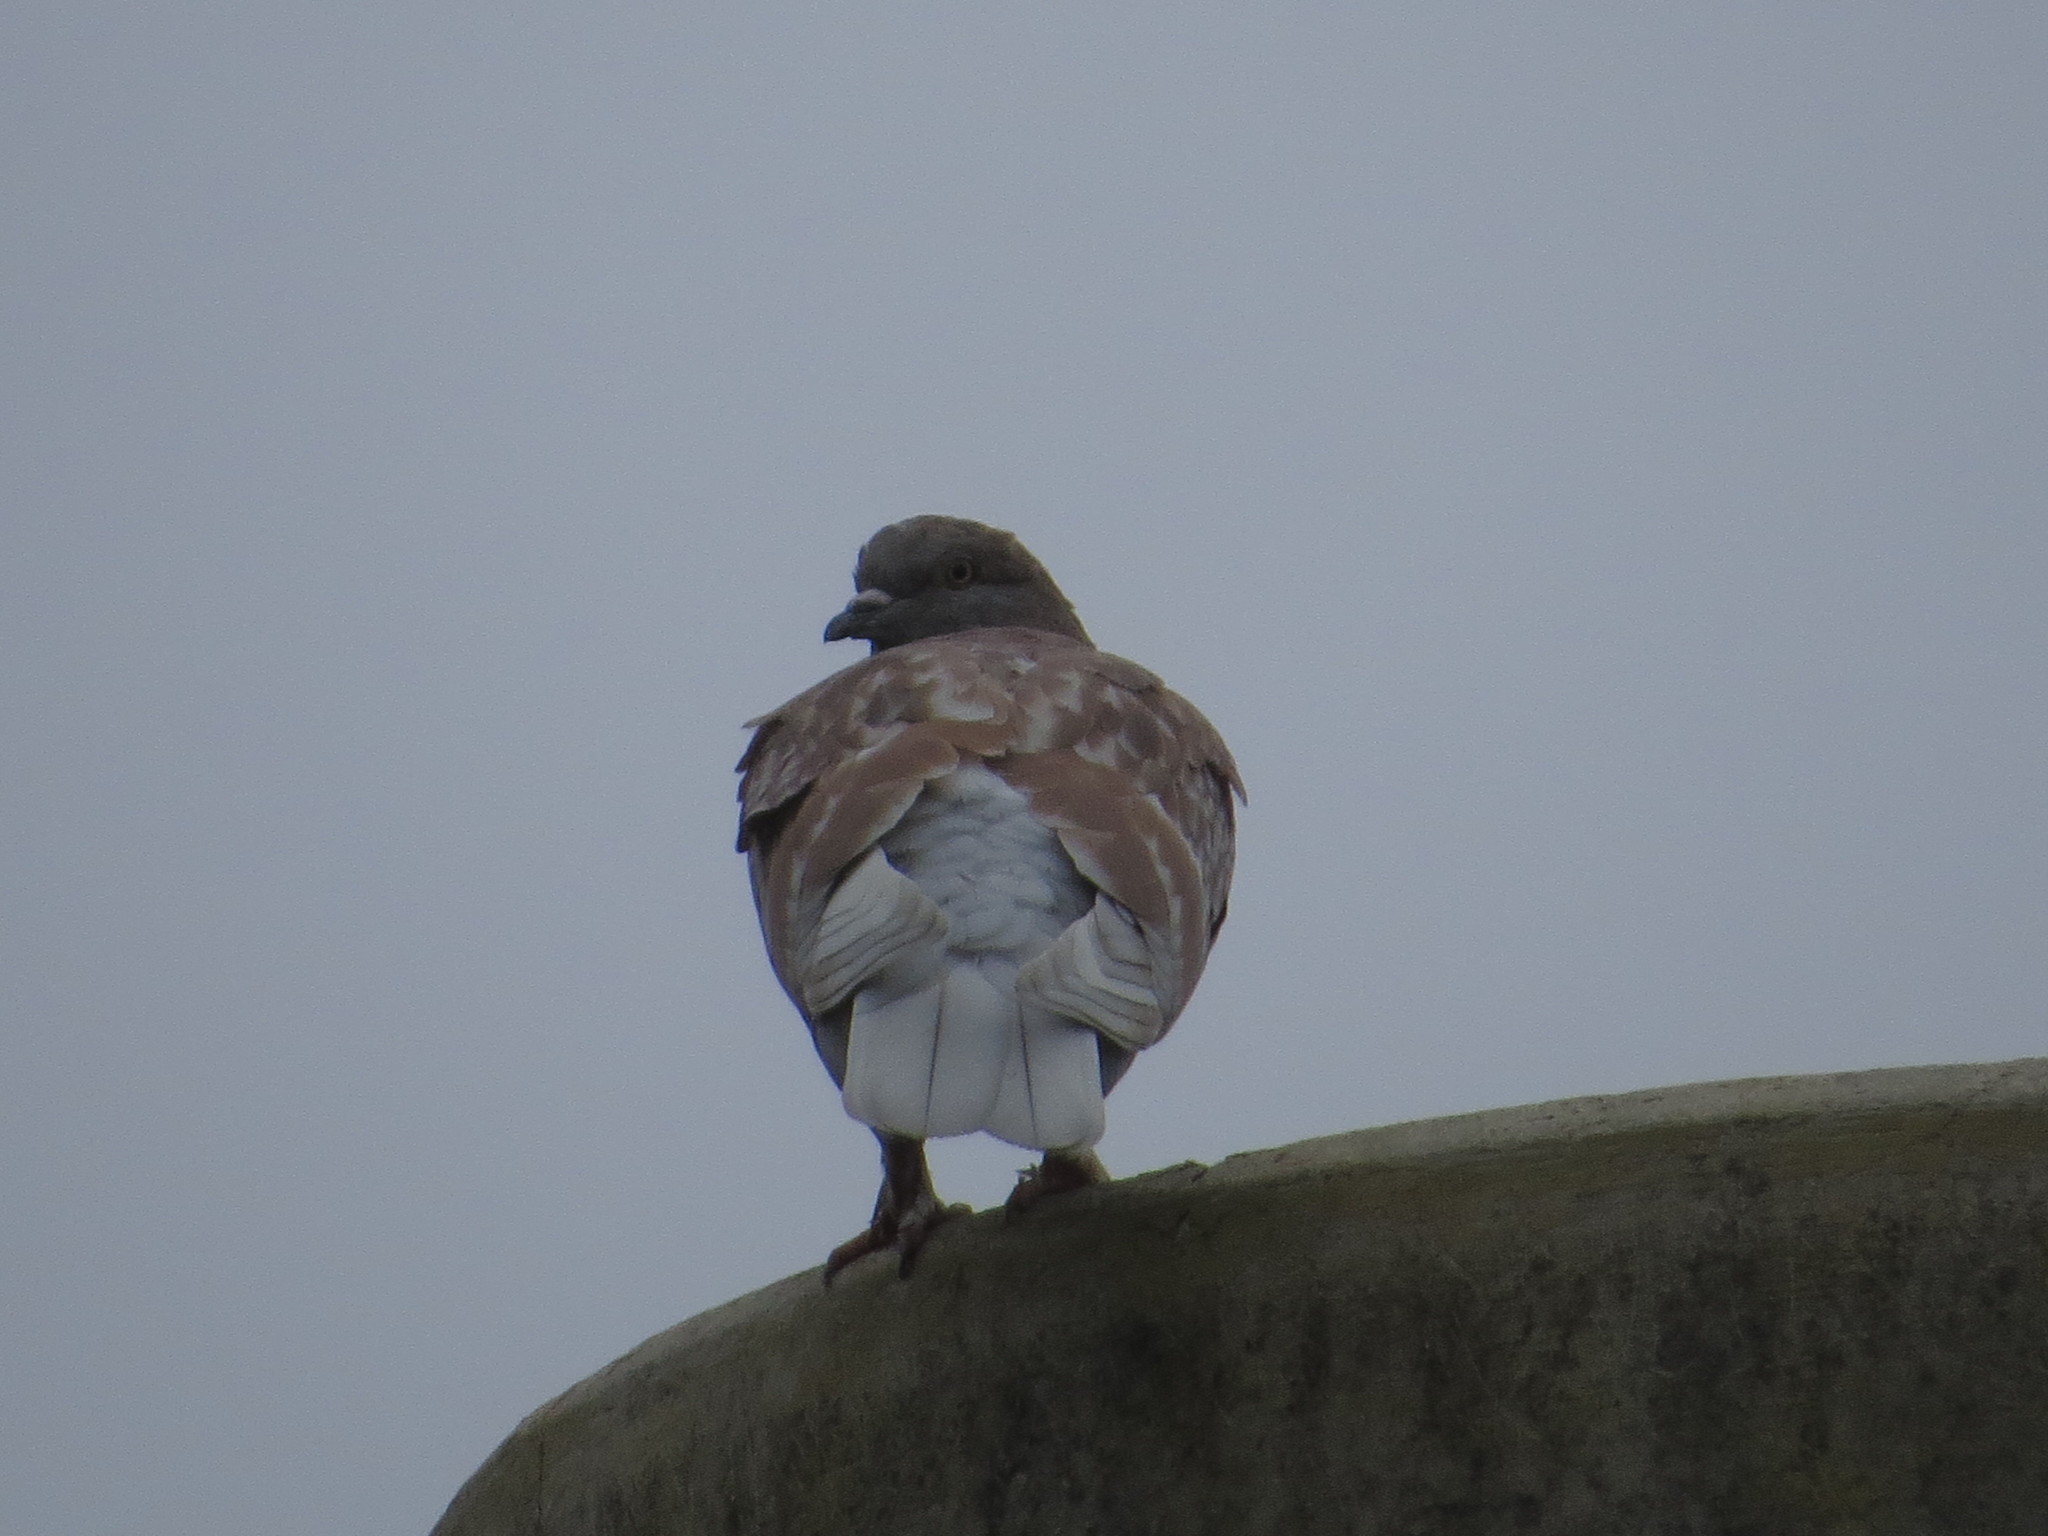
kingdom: Animalia
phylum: Chordata
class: Aves
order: Columbiformes
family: Columbidae
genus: Columba
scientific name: Columba livia
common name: Rock pigeon
